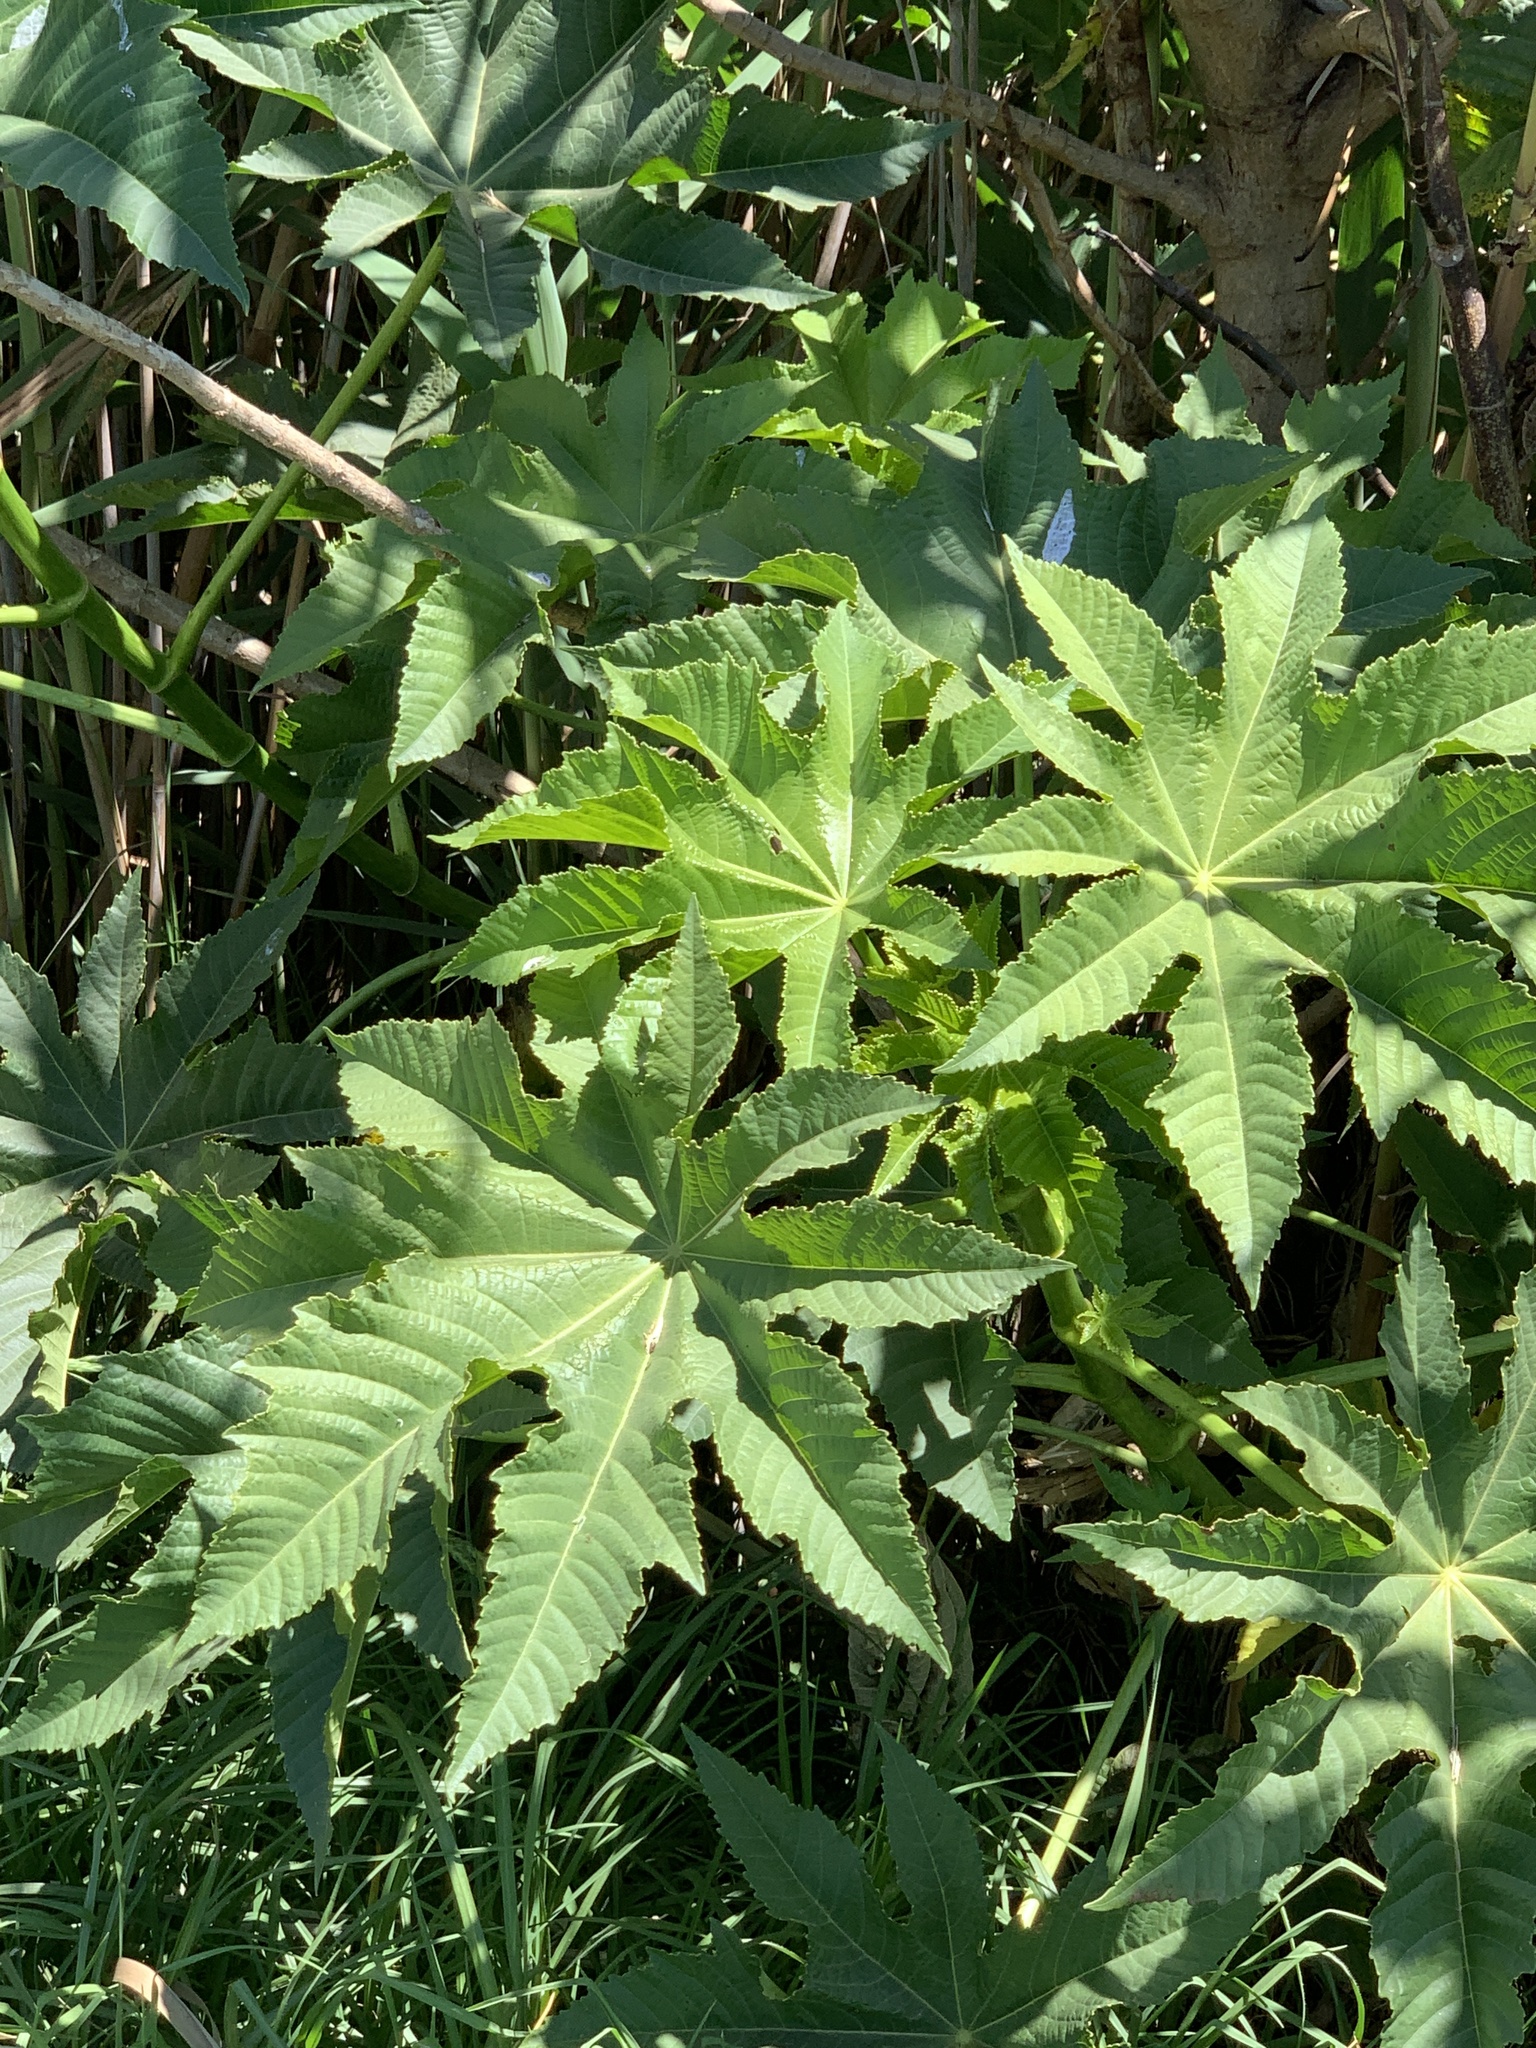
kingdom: Plantae
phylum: Tracheophyta
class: Magnoliopsida
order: Malpighiales
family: Euphorbiaceae
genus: Ricinus
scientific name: Ricinus communis
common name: Castor-oil-plant
